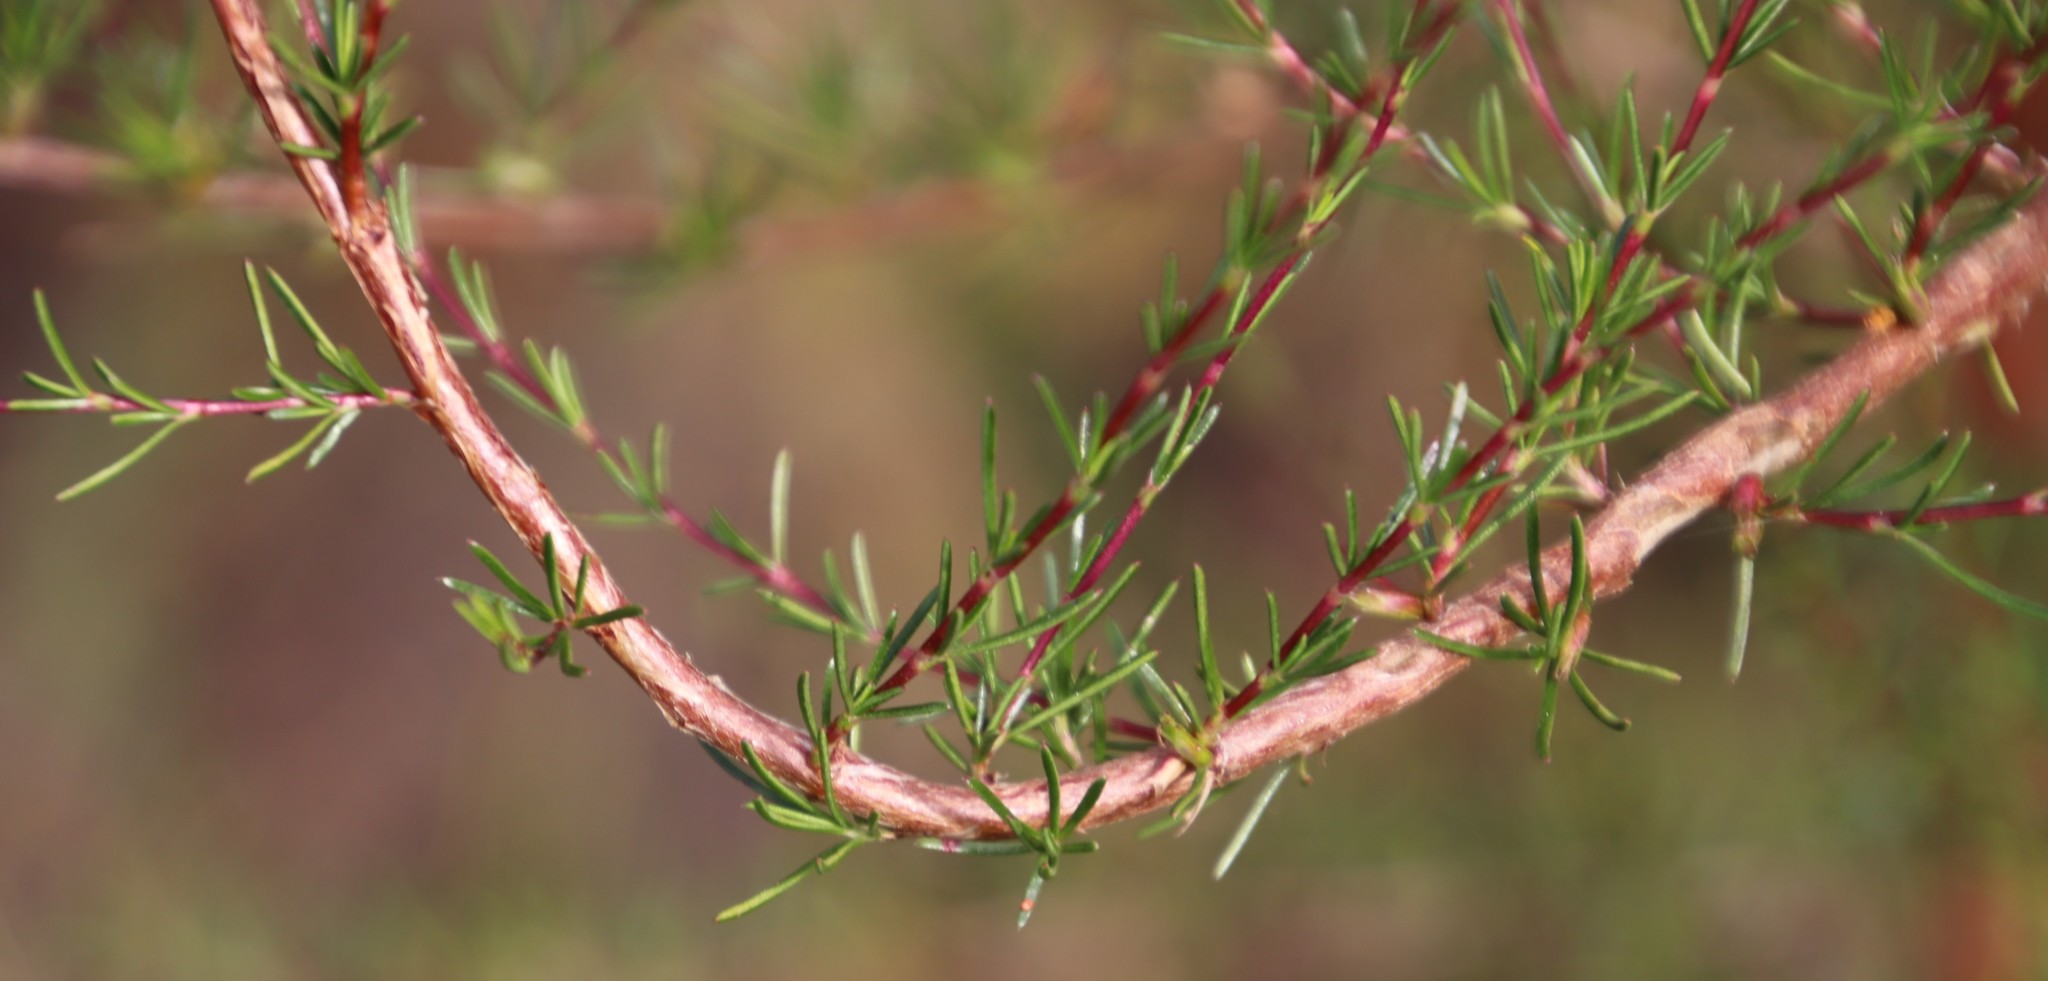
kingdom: Plantae
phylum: Tracheophyta
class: Magnoliopsida
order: Rosales
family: Rosaceae
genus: Cliffortia
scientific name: Cliffortia erectisepala
